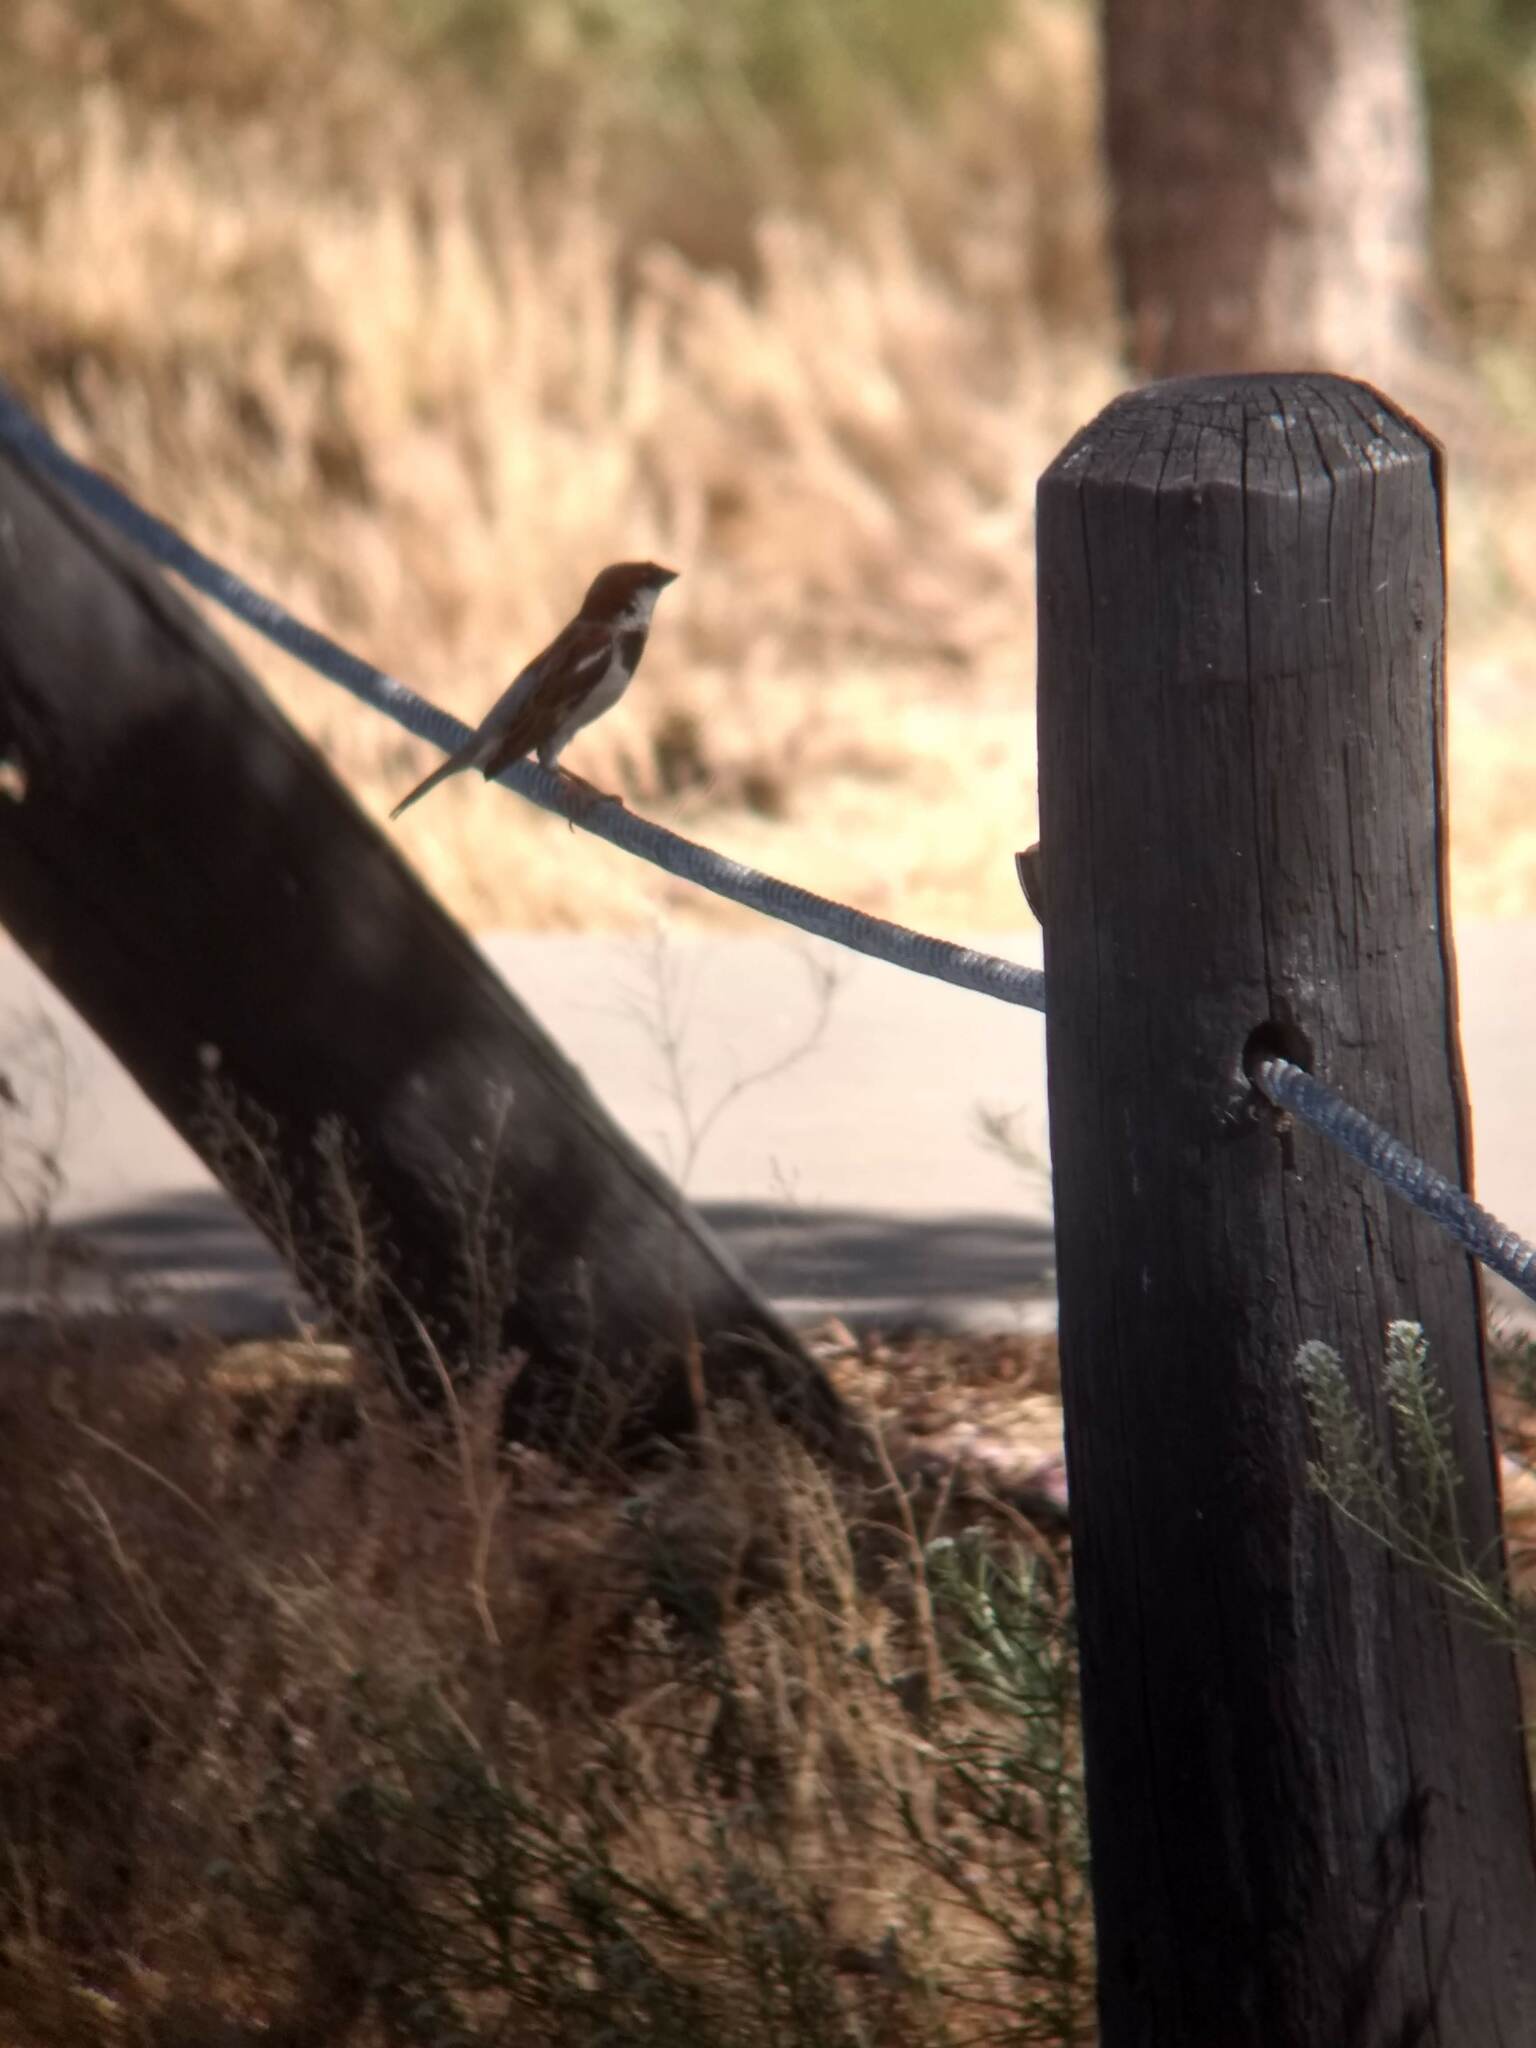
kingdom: Animalia
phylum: Chordata
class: Aves
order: Passeriformes
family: Passeridae
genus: Passer
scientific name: Passer domesticus
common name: House sparrow
